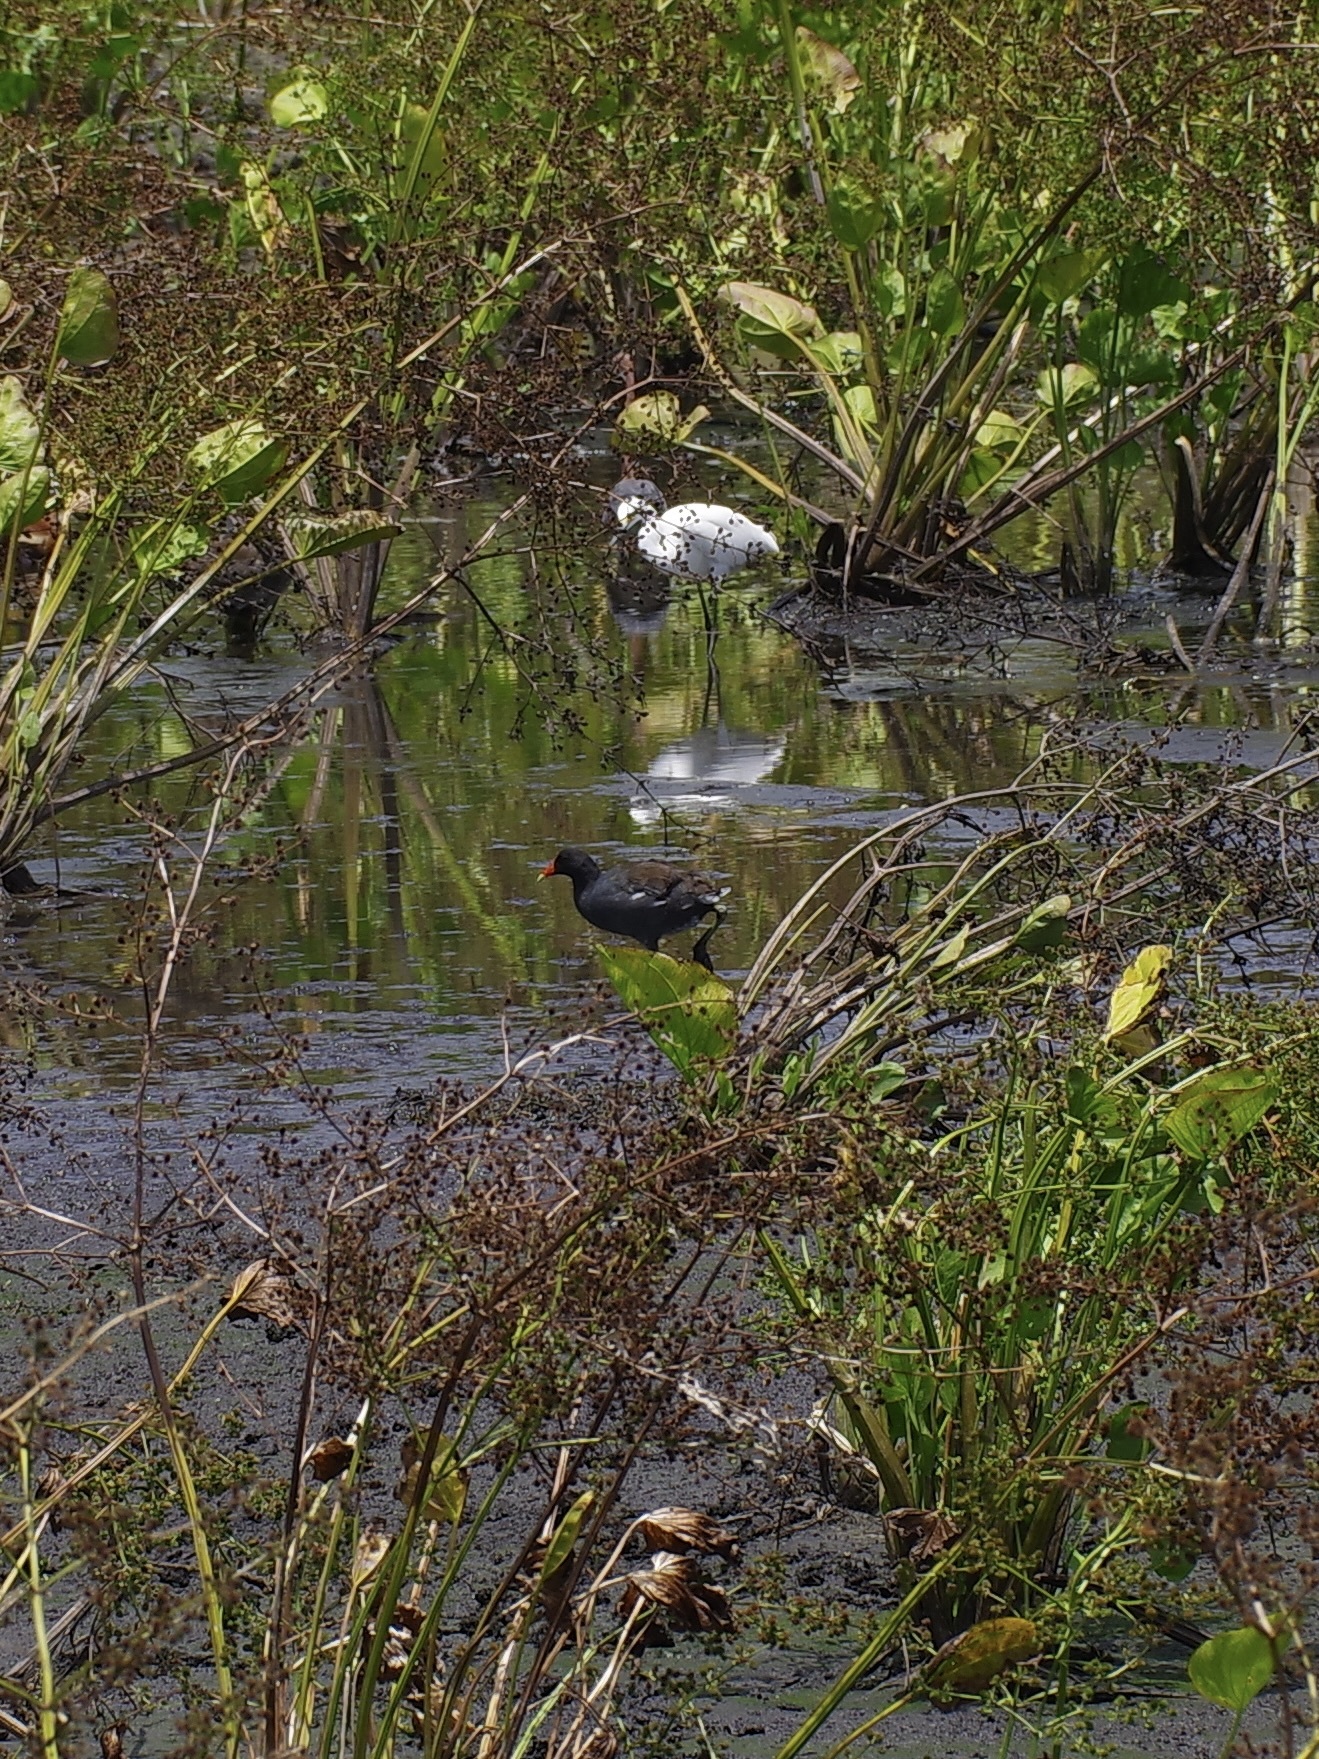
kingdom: Animalia
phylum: Chordata
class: Aves
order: Gruiformes
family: Rallidae
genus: Gallinula
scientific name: Gallinula chloropus
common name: Common moorhen
